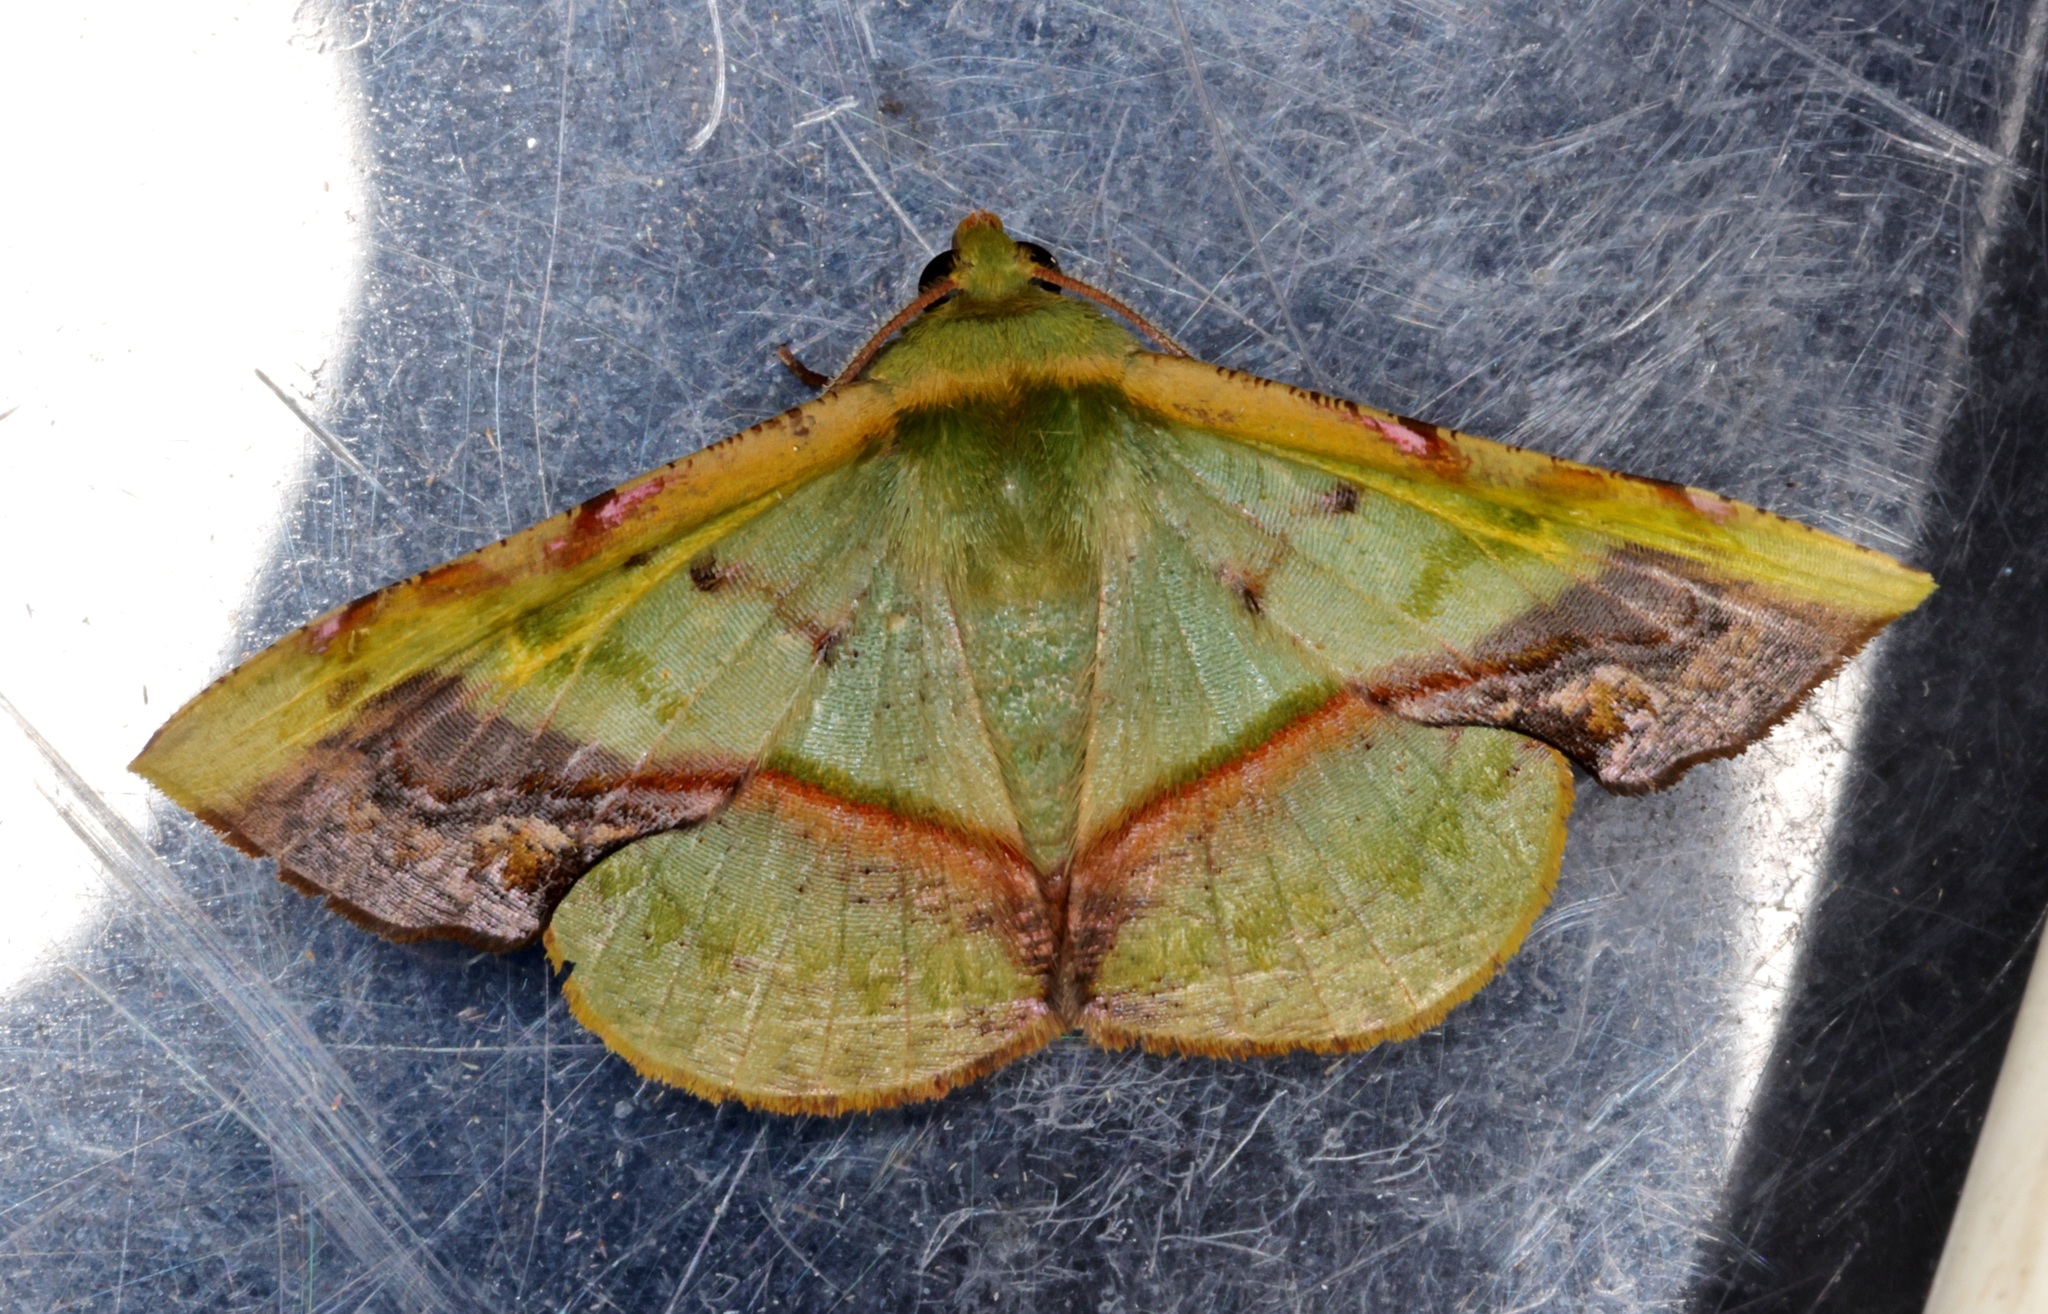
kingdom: Animalia
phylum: Arthropoda
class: Insecta
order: Lepidoptera
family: Geometridae
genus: Fascellina
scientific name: Fascellina plagiata
